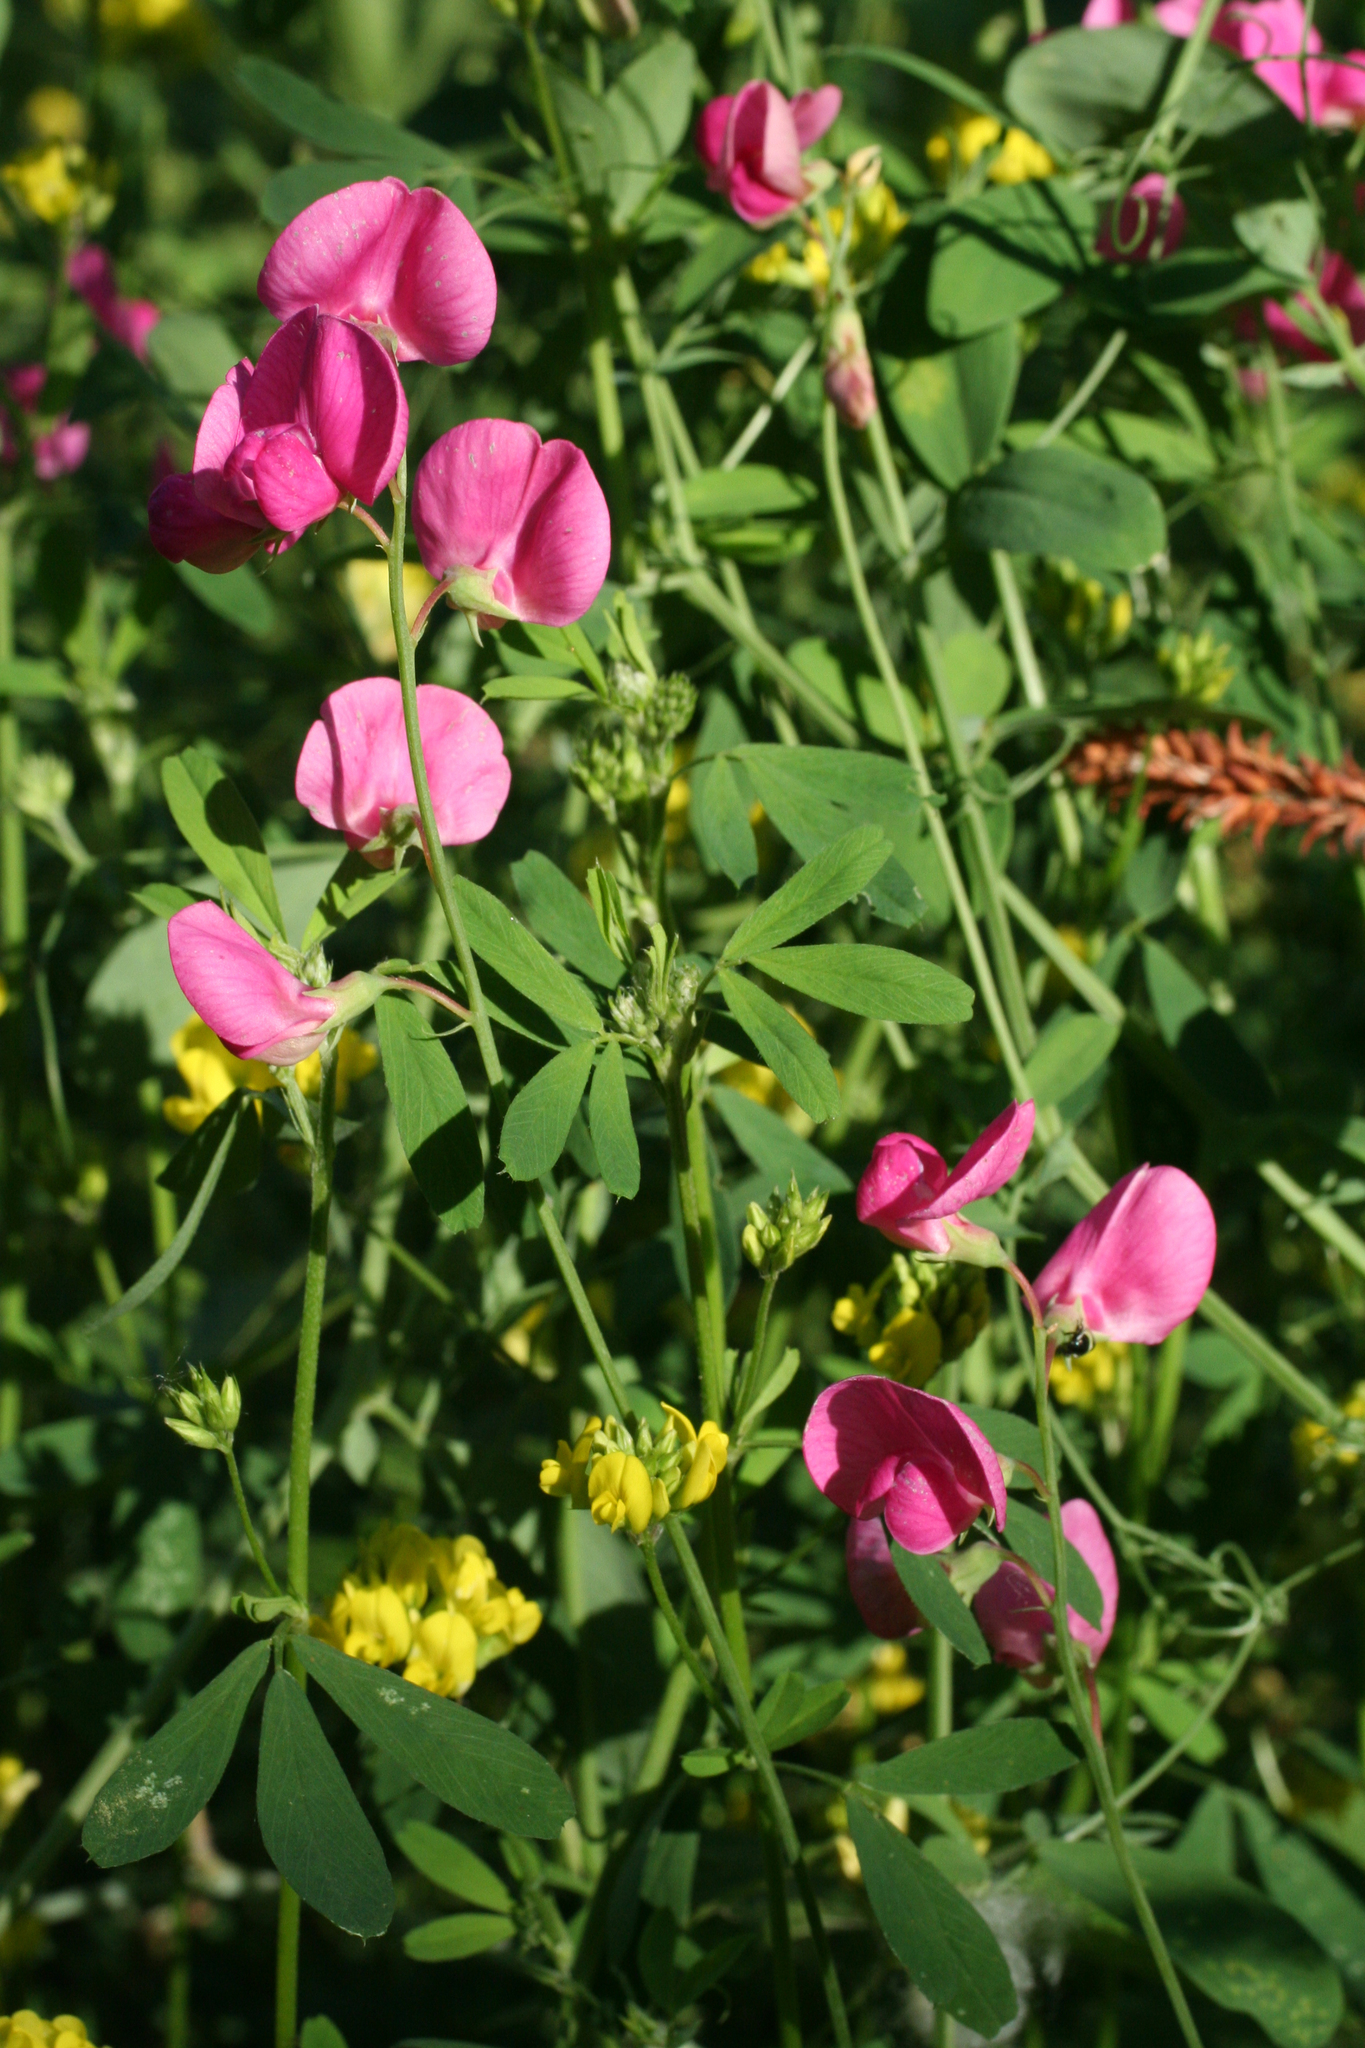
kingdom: Plantae
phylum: Tracheophyta
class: Magnoliopsida
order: Fabales
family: Fabaceae
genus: Lathyrus
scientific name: Lathyrus tuberosus
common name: Tuberous pea
